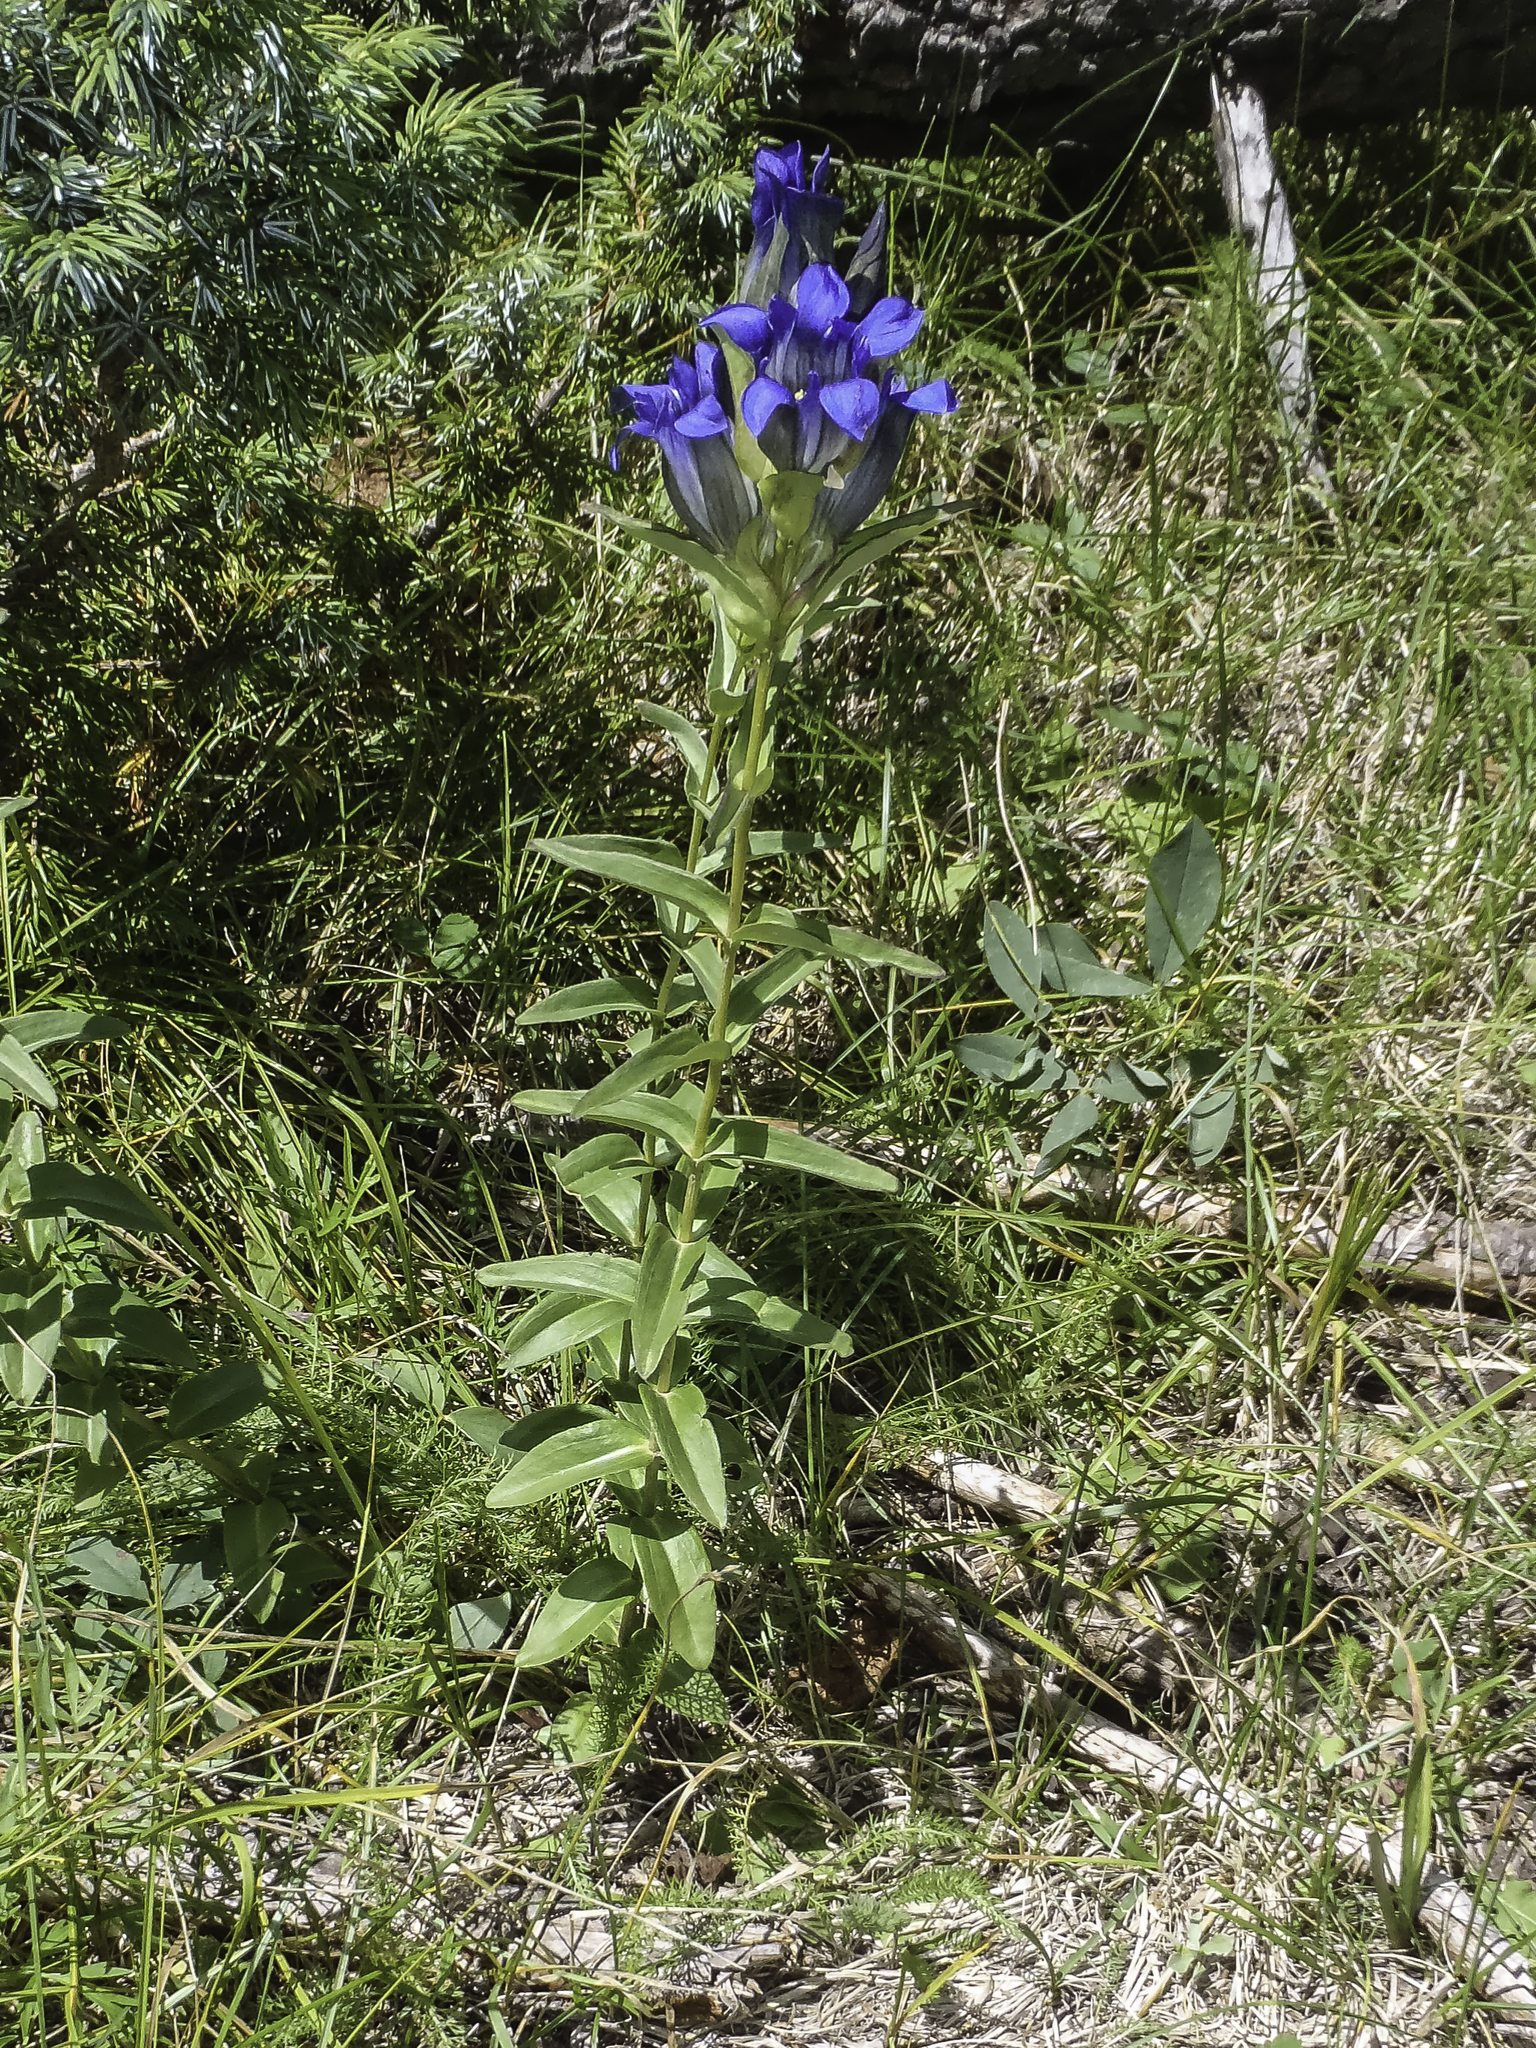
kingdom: Plantae
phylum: Tracheophyta
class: Magnoliopsida
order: Gentianales
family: Gentianaceae
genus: Gentiana
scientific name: Gentiana parryi
